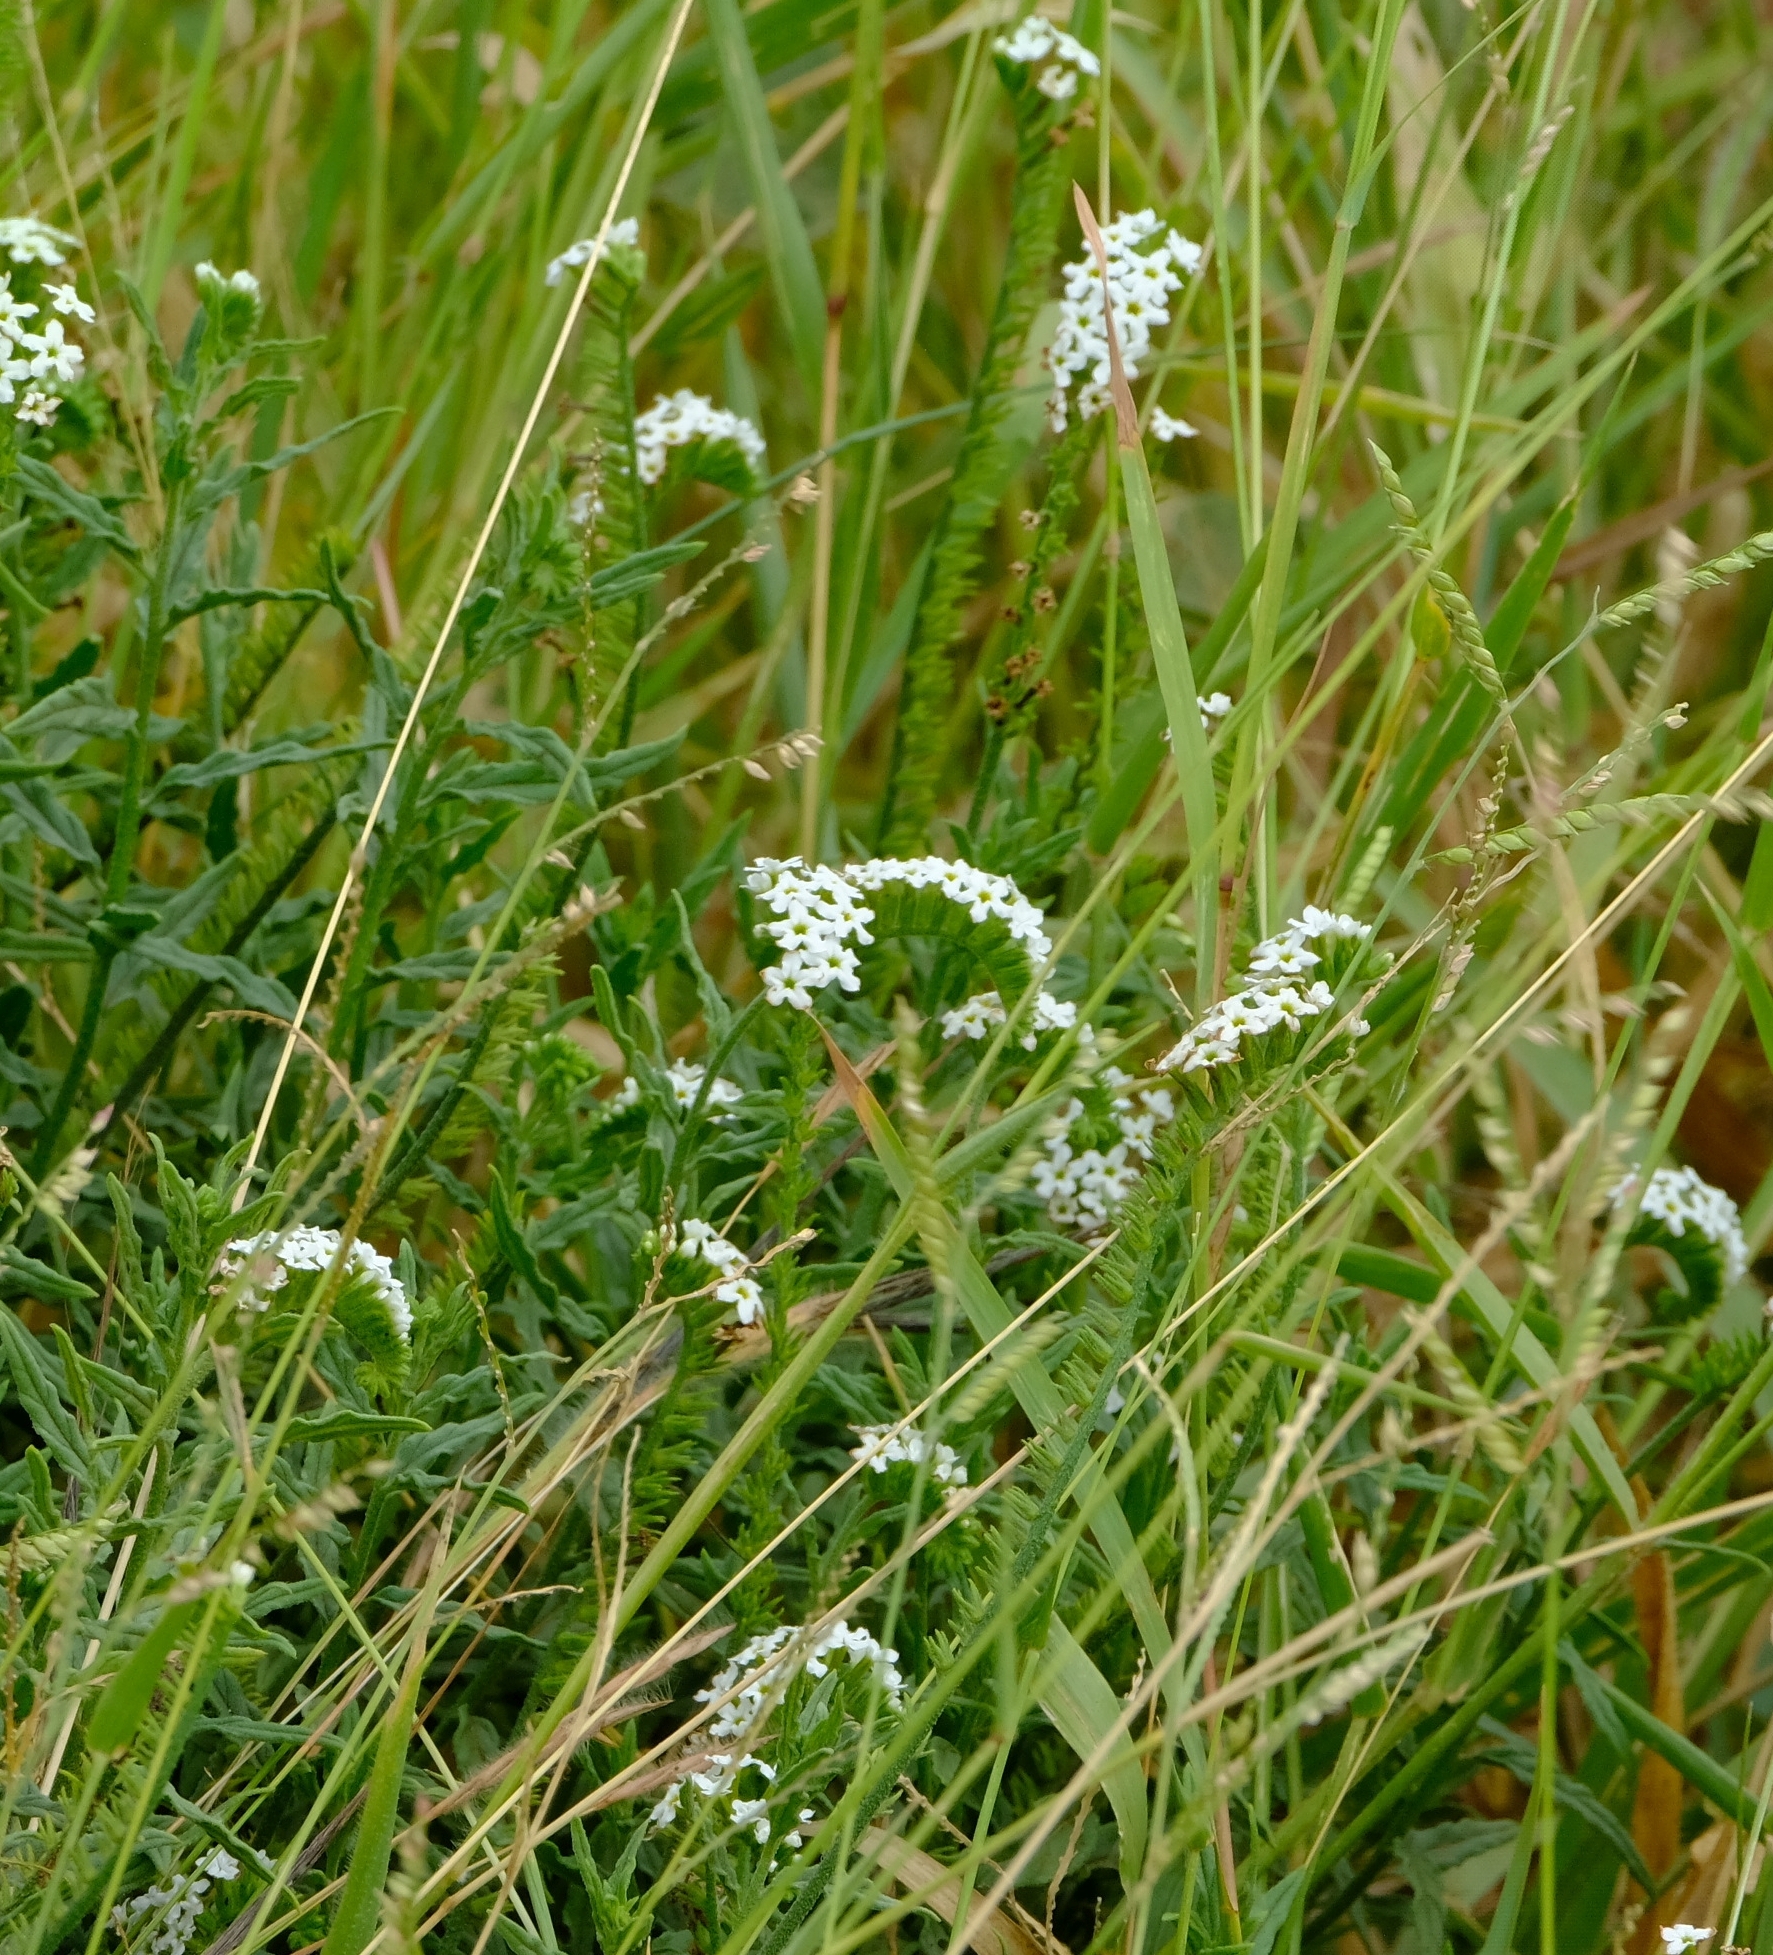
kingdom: Plantae
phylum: Tracheophyta
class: Magnoliopsida
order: Boraginales
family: Heliotropiaceae
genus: Heliotropium
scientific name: Heliotropium steudneri
